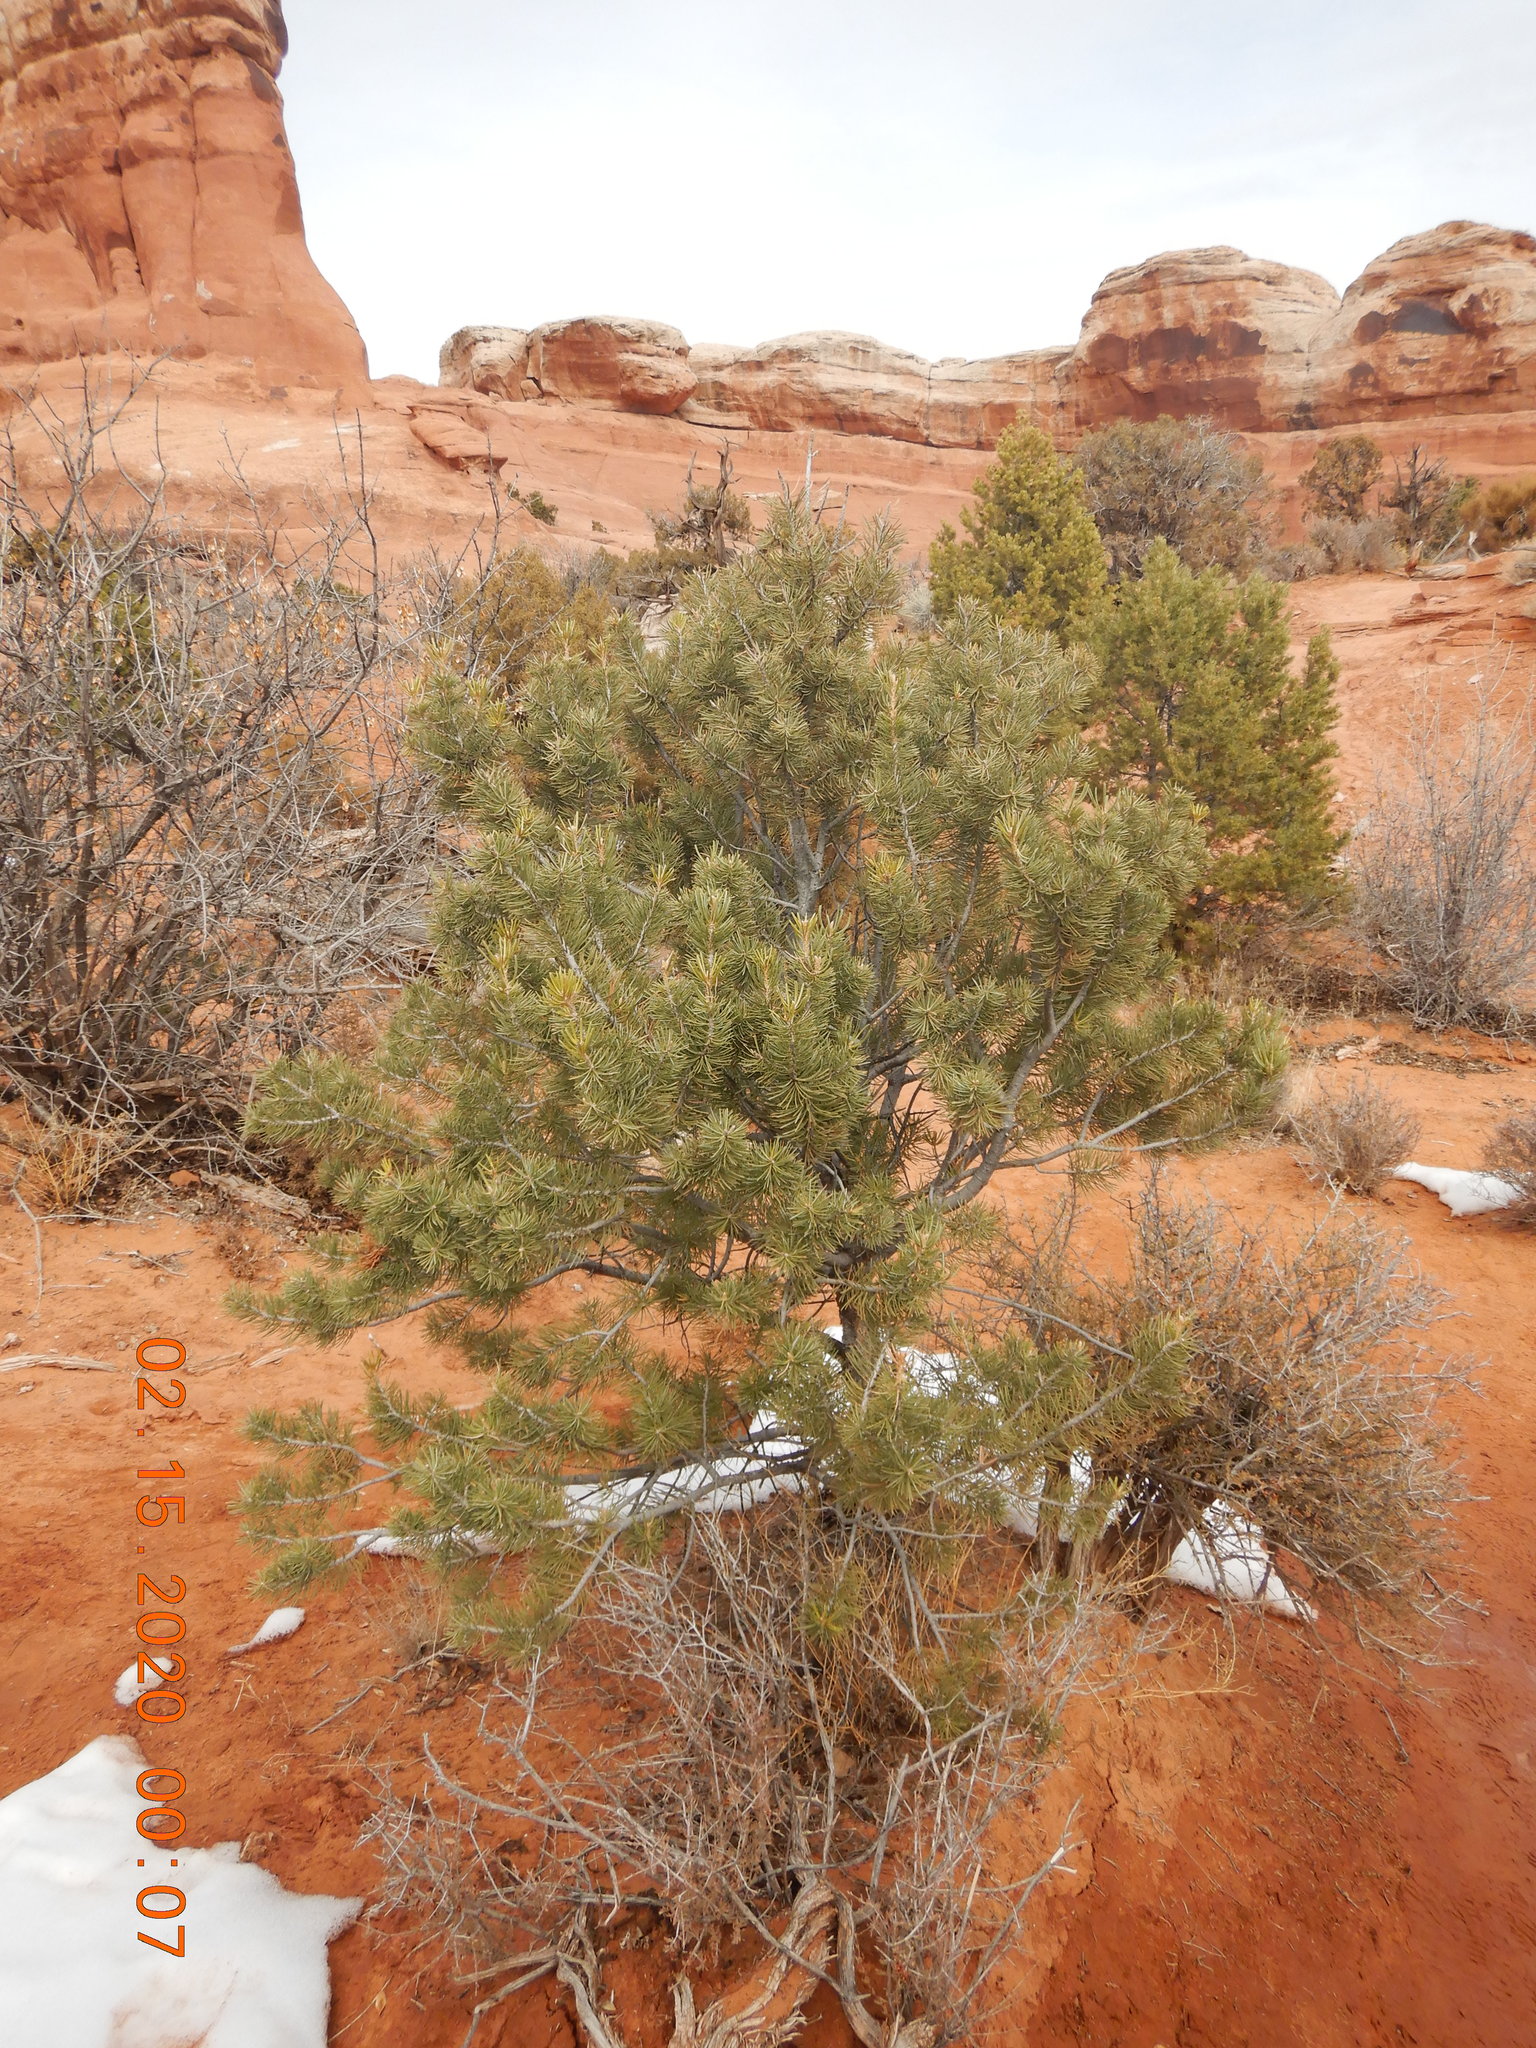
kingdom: Plantae
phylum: Tracheophyta
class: Pinopsida
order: Pinales
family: Pinaceae
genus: Pinus
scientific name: Pinus edulis
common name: Colorado pinyon
